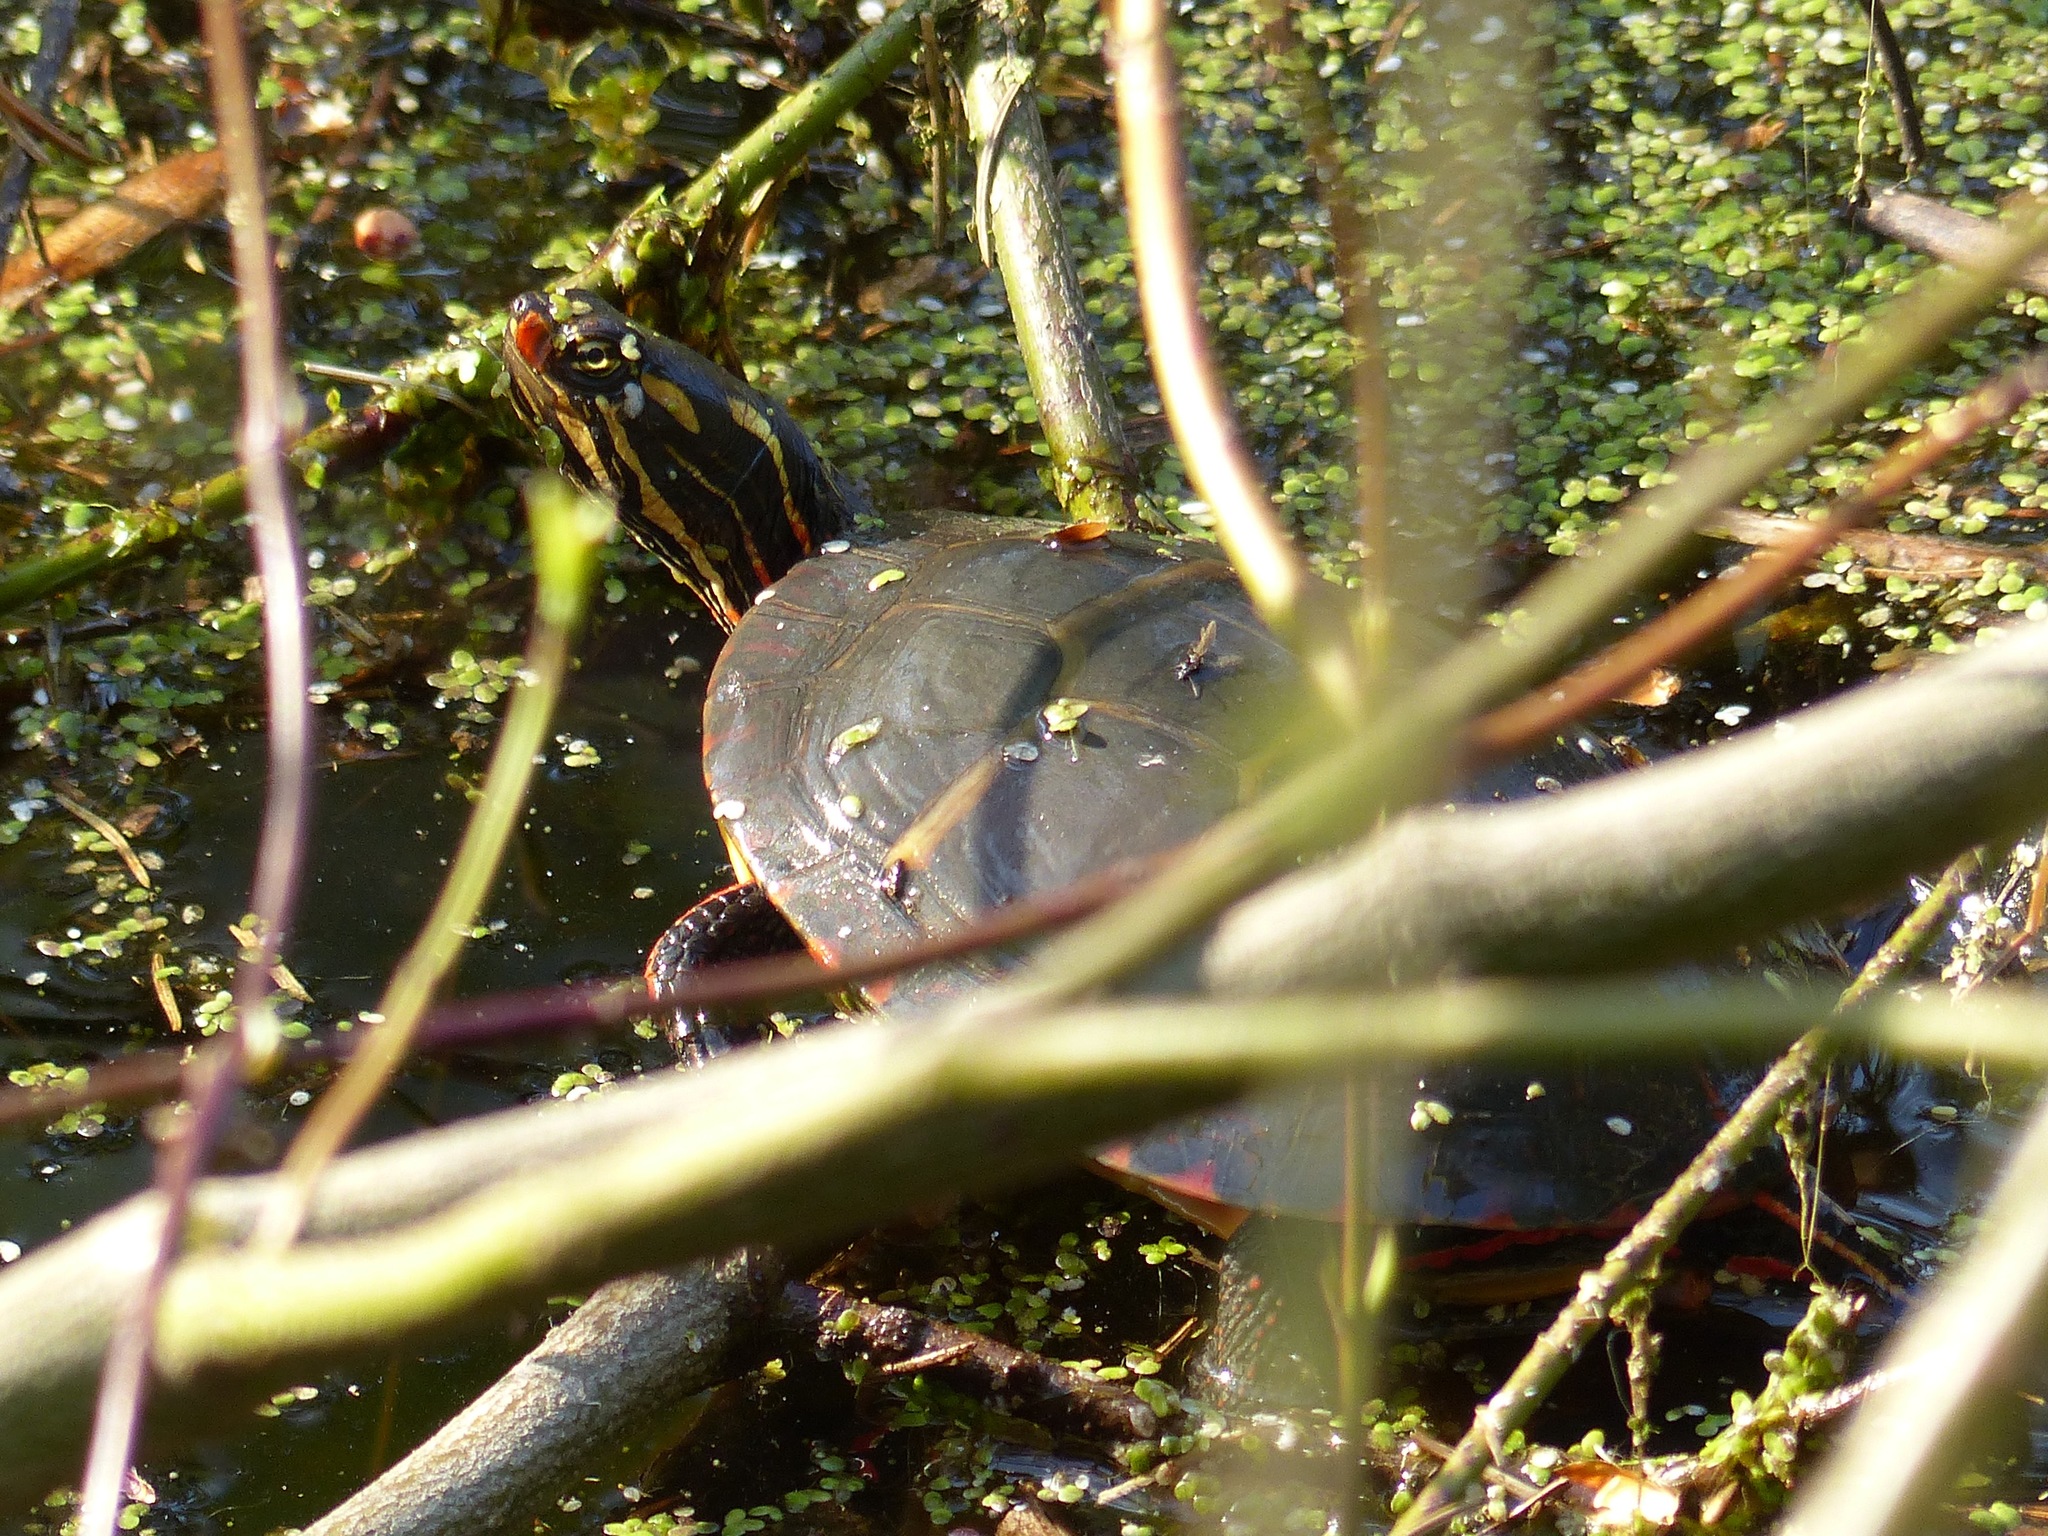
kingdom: Animalia
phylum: Chordata
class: Testudines
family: Emydidae
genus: Chrysemys
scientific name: Chrysemys picta
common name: Painted turtle
